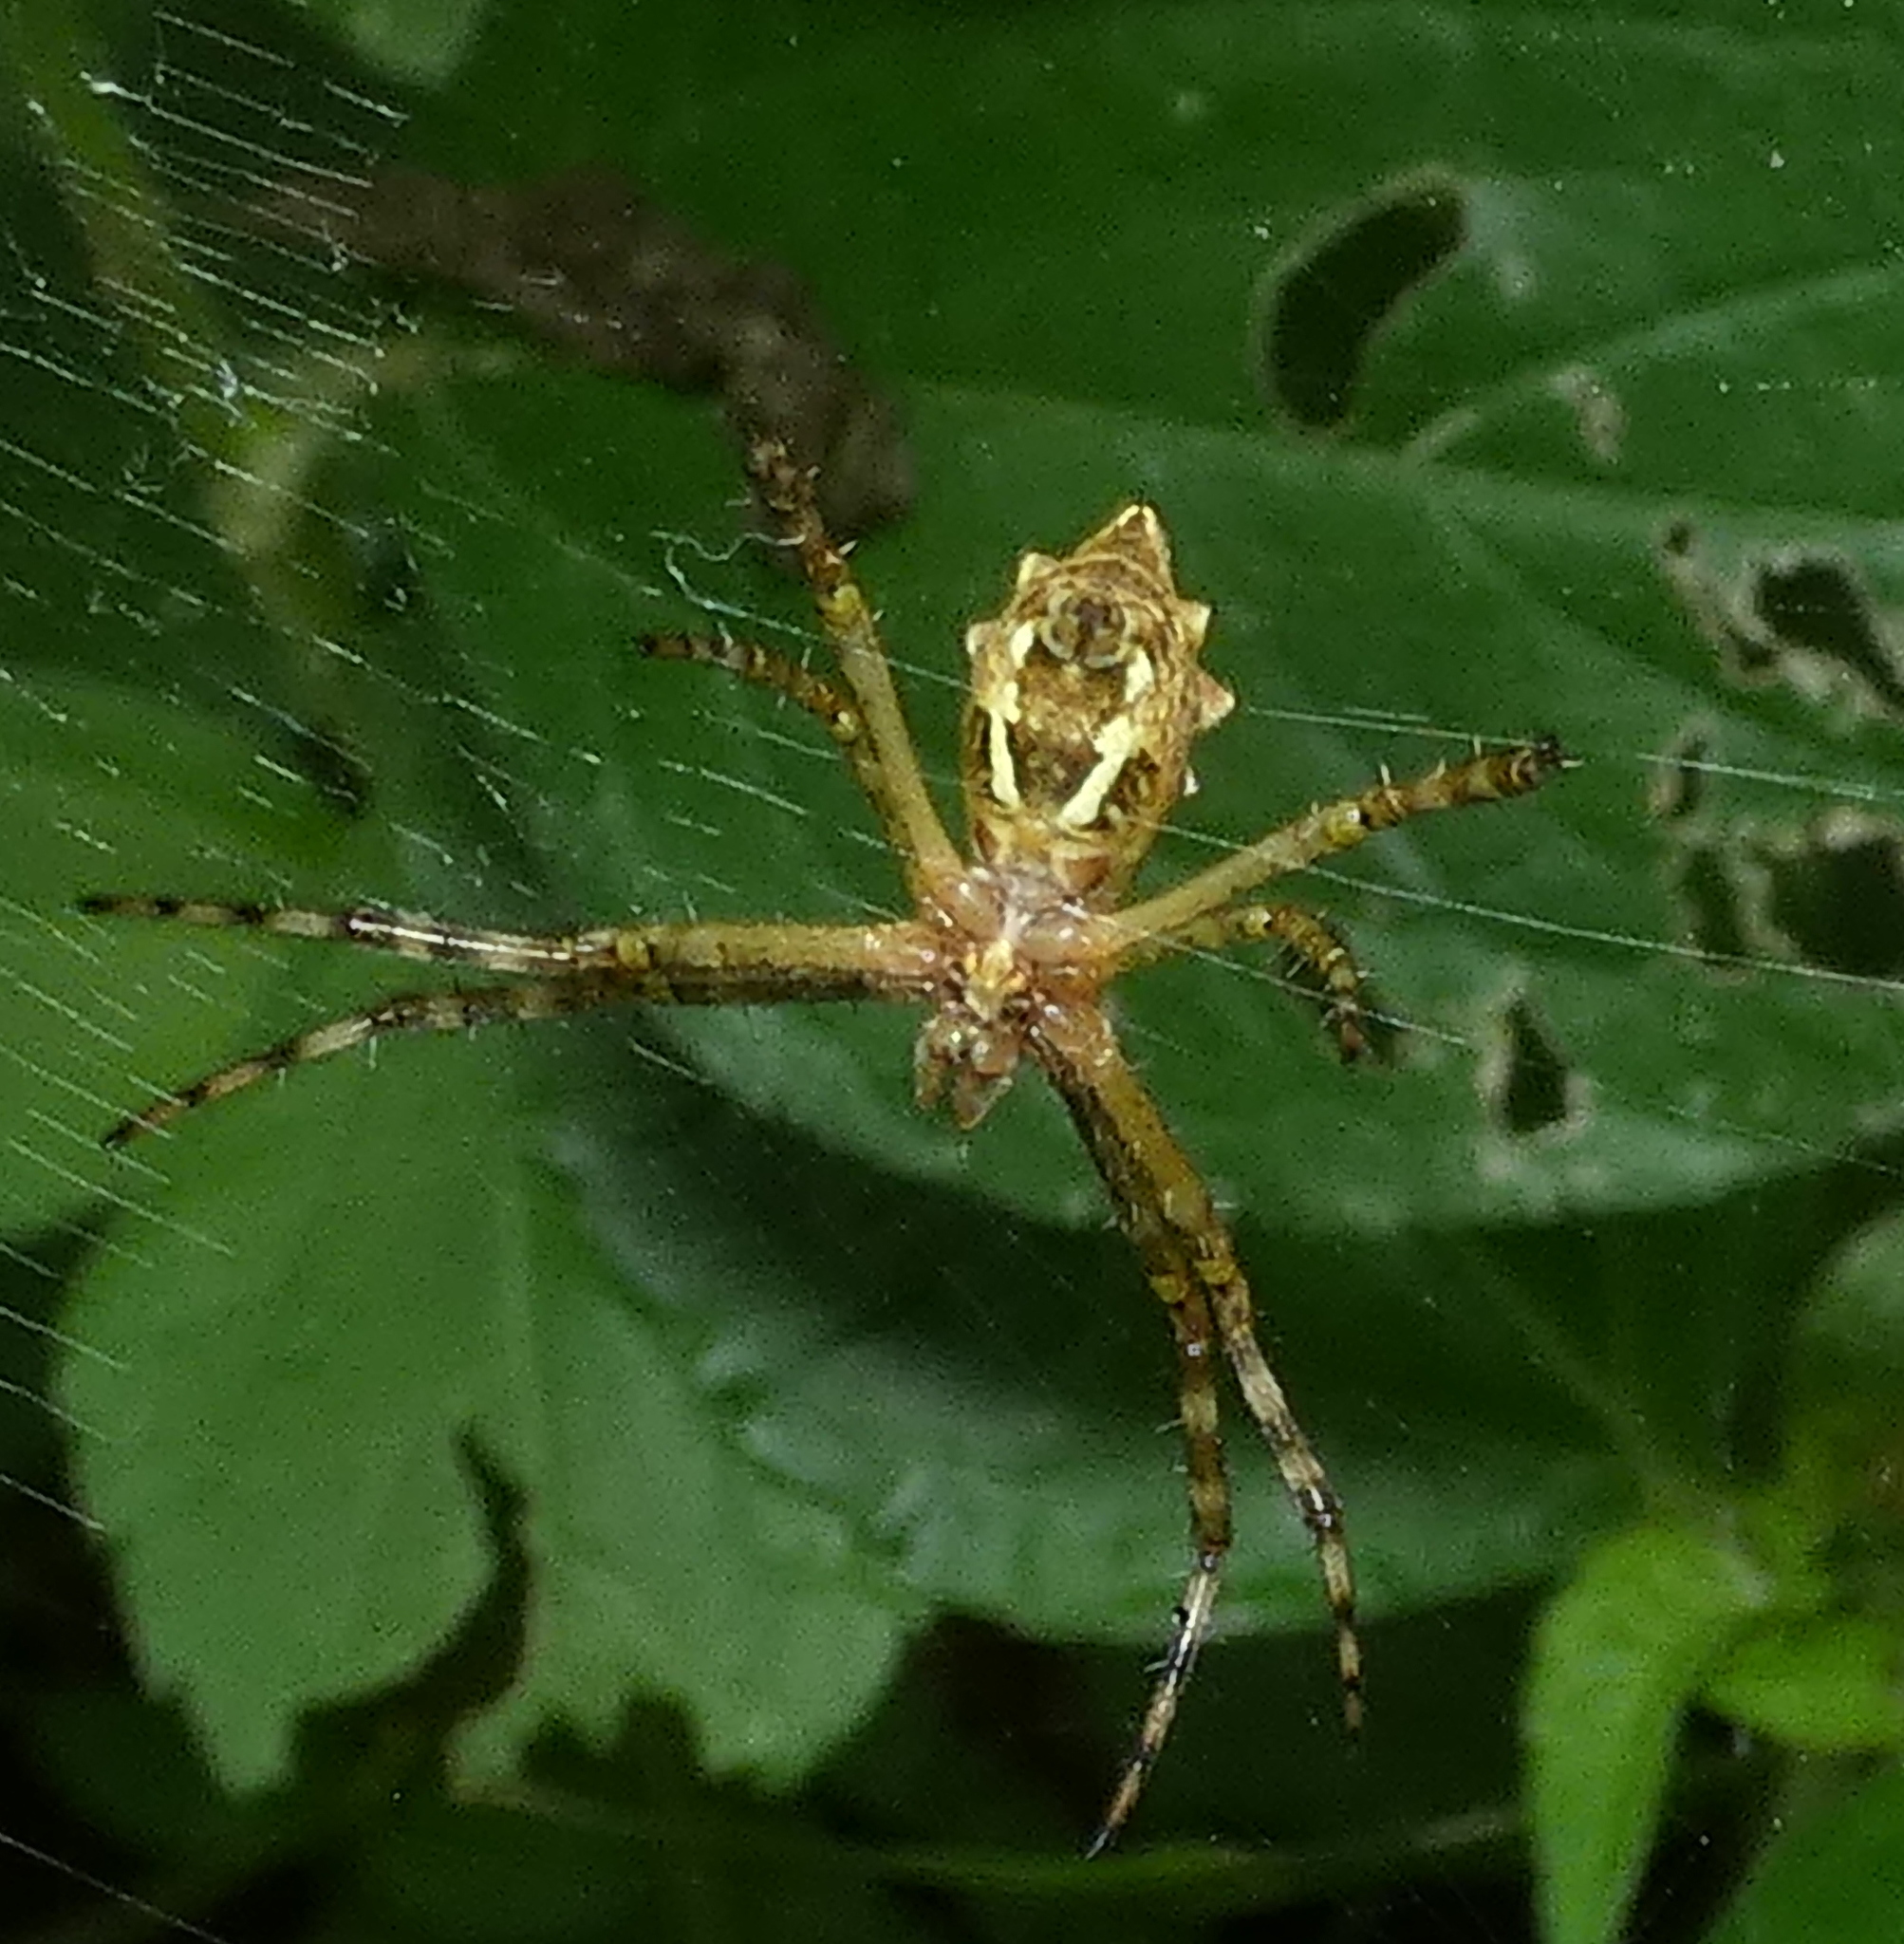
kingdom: Animalia
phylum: Arthropoda
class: Arachnida
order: Araneae
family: Araneidae
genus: Argiope
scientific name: Argiope argentata
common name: Orb weavers
